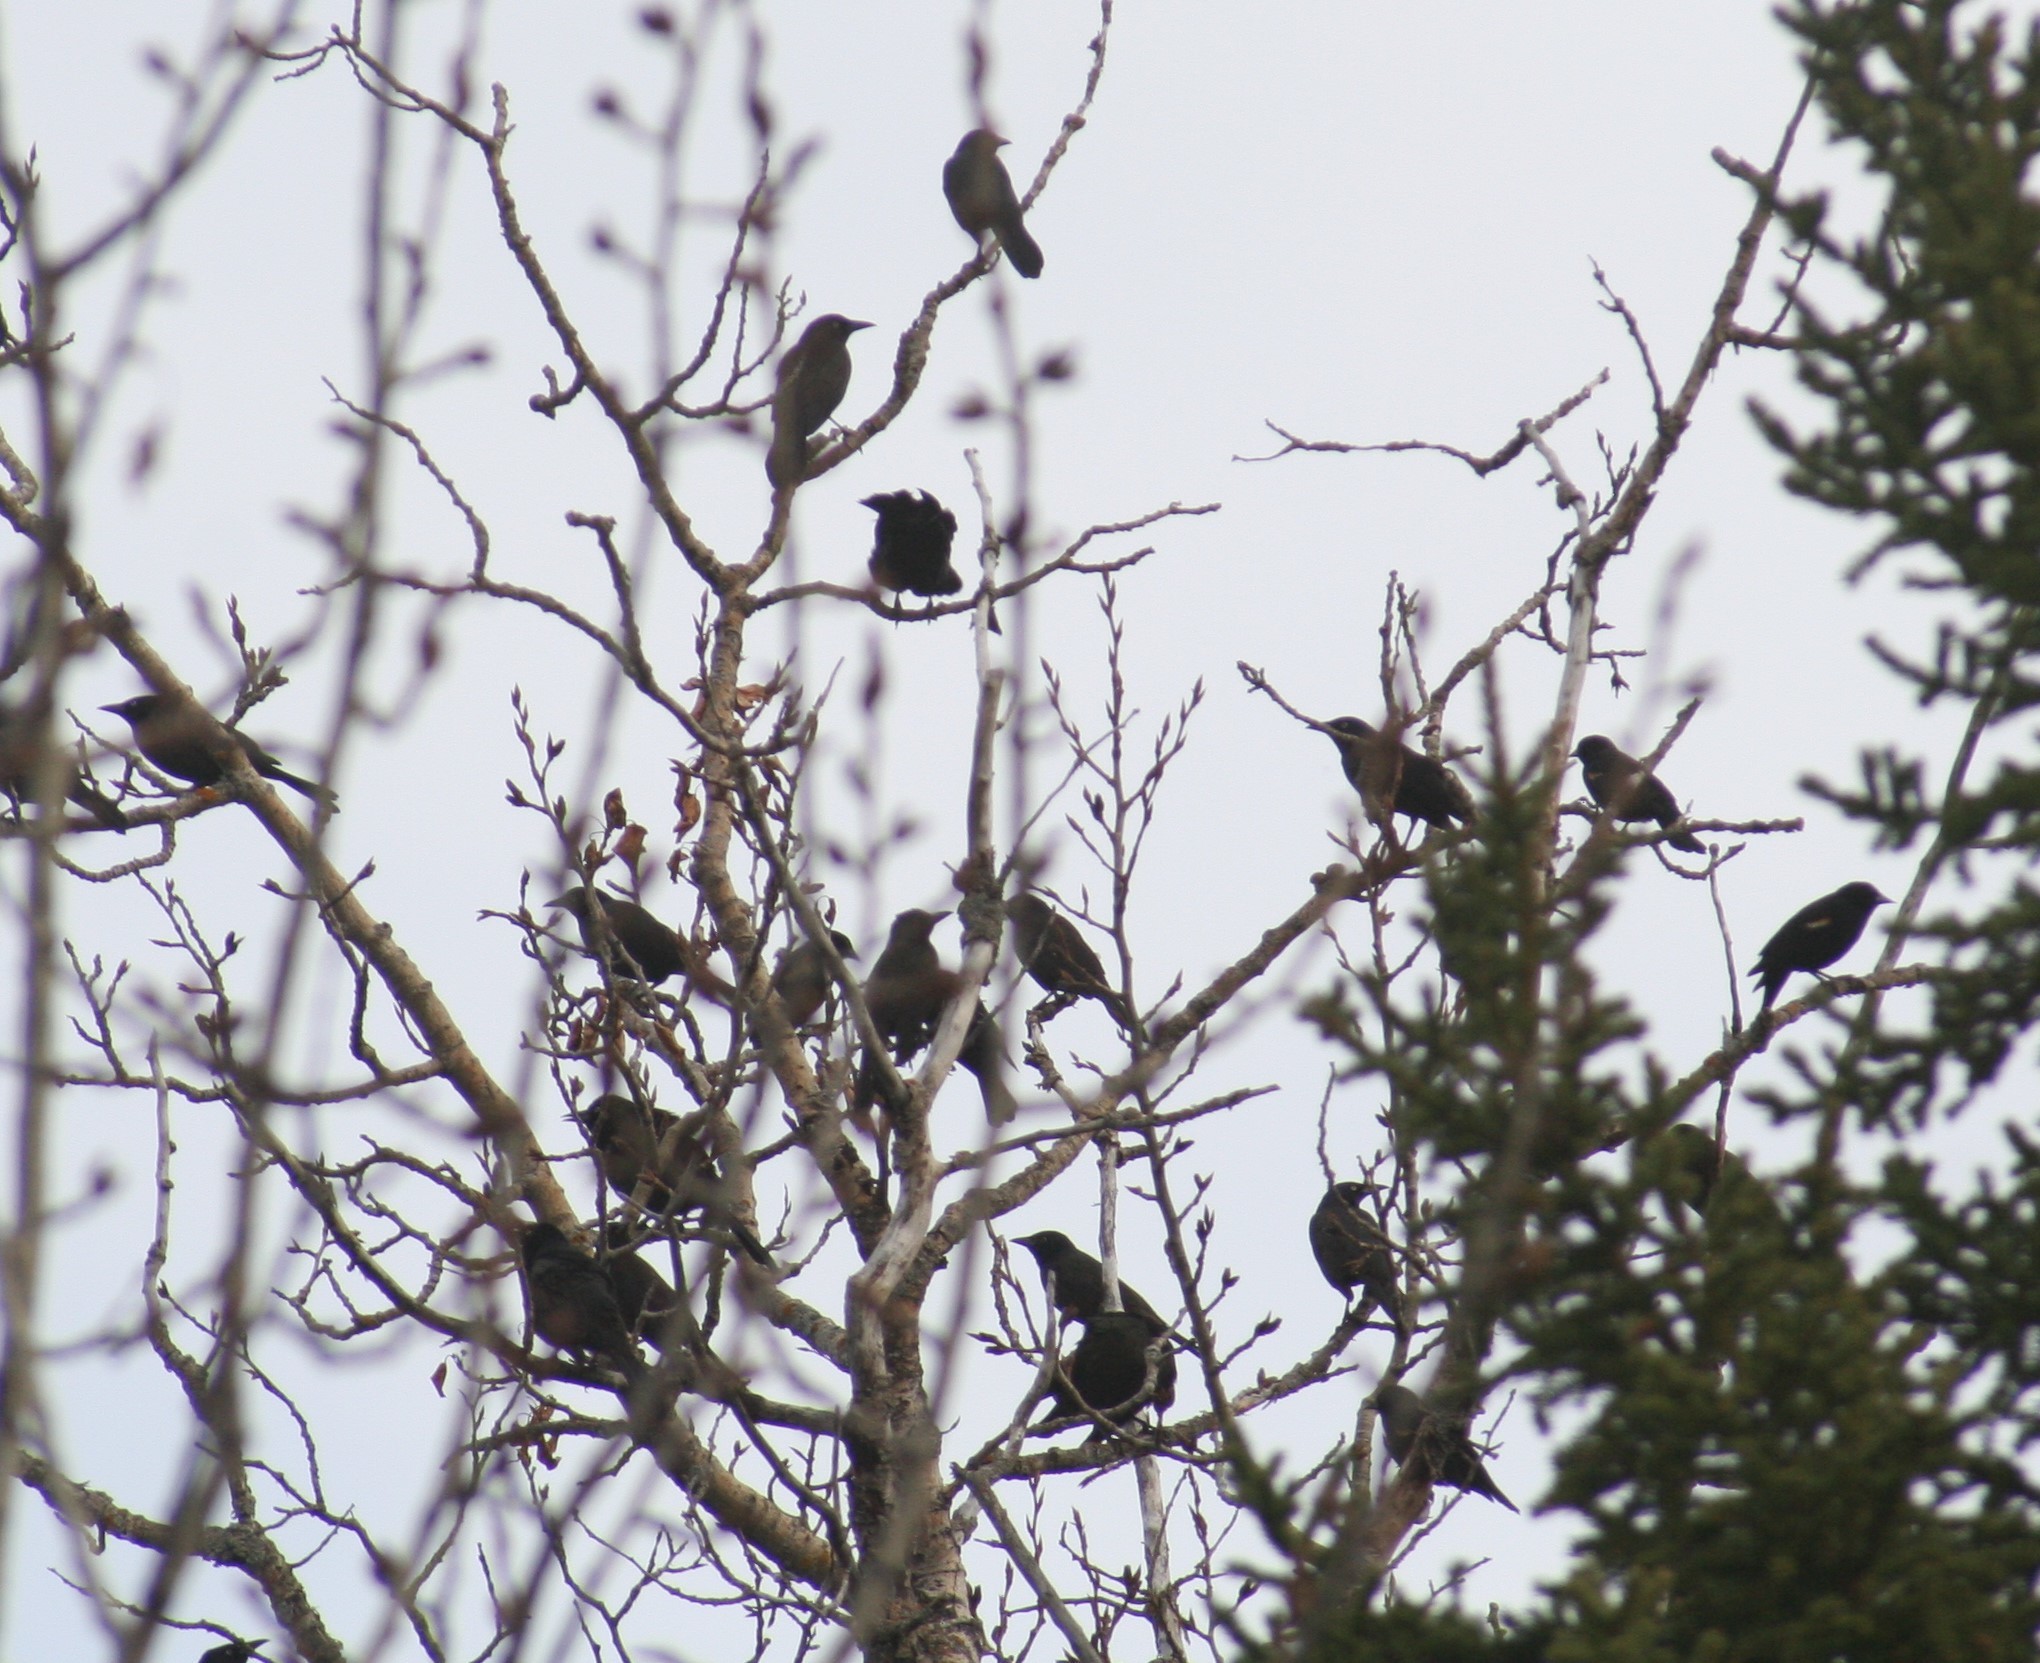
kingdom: Animalia
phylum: Chordata
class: Aves
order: Passeriformes
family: Icteridae
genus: Quiscalus
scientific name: Quiscalus quiscula
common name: Common grackle
